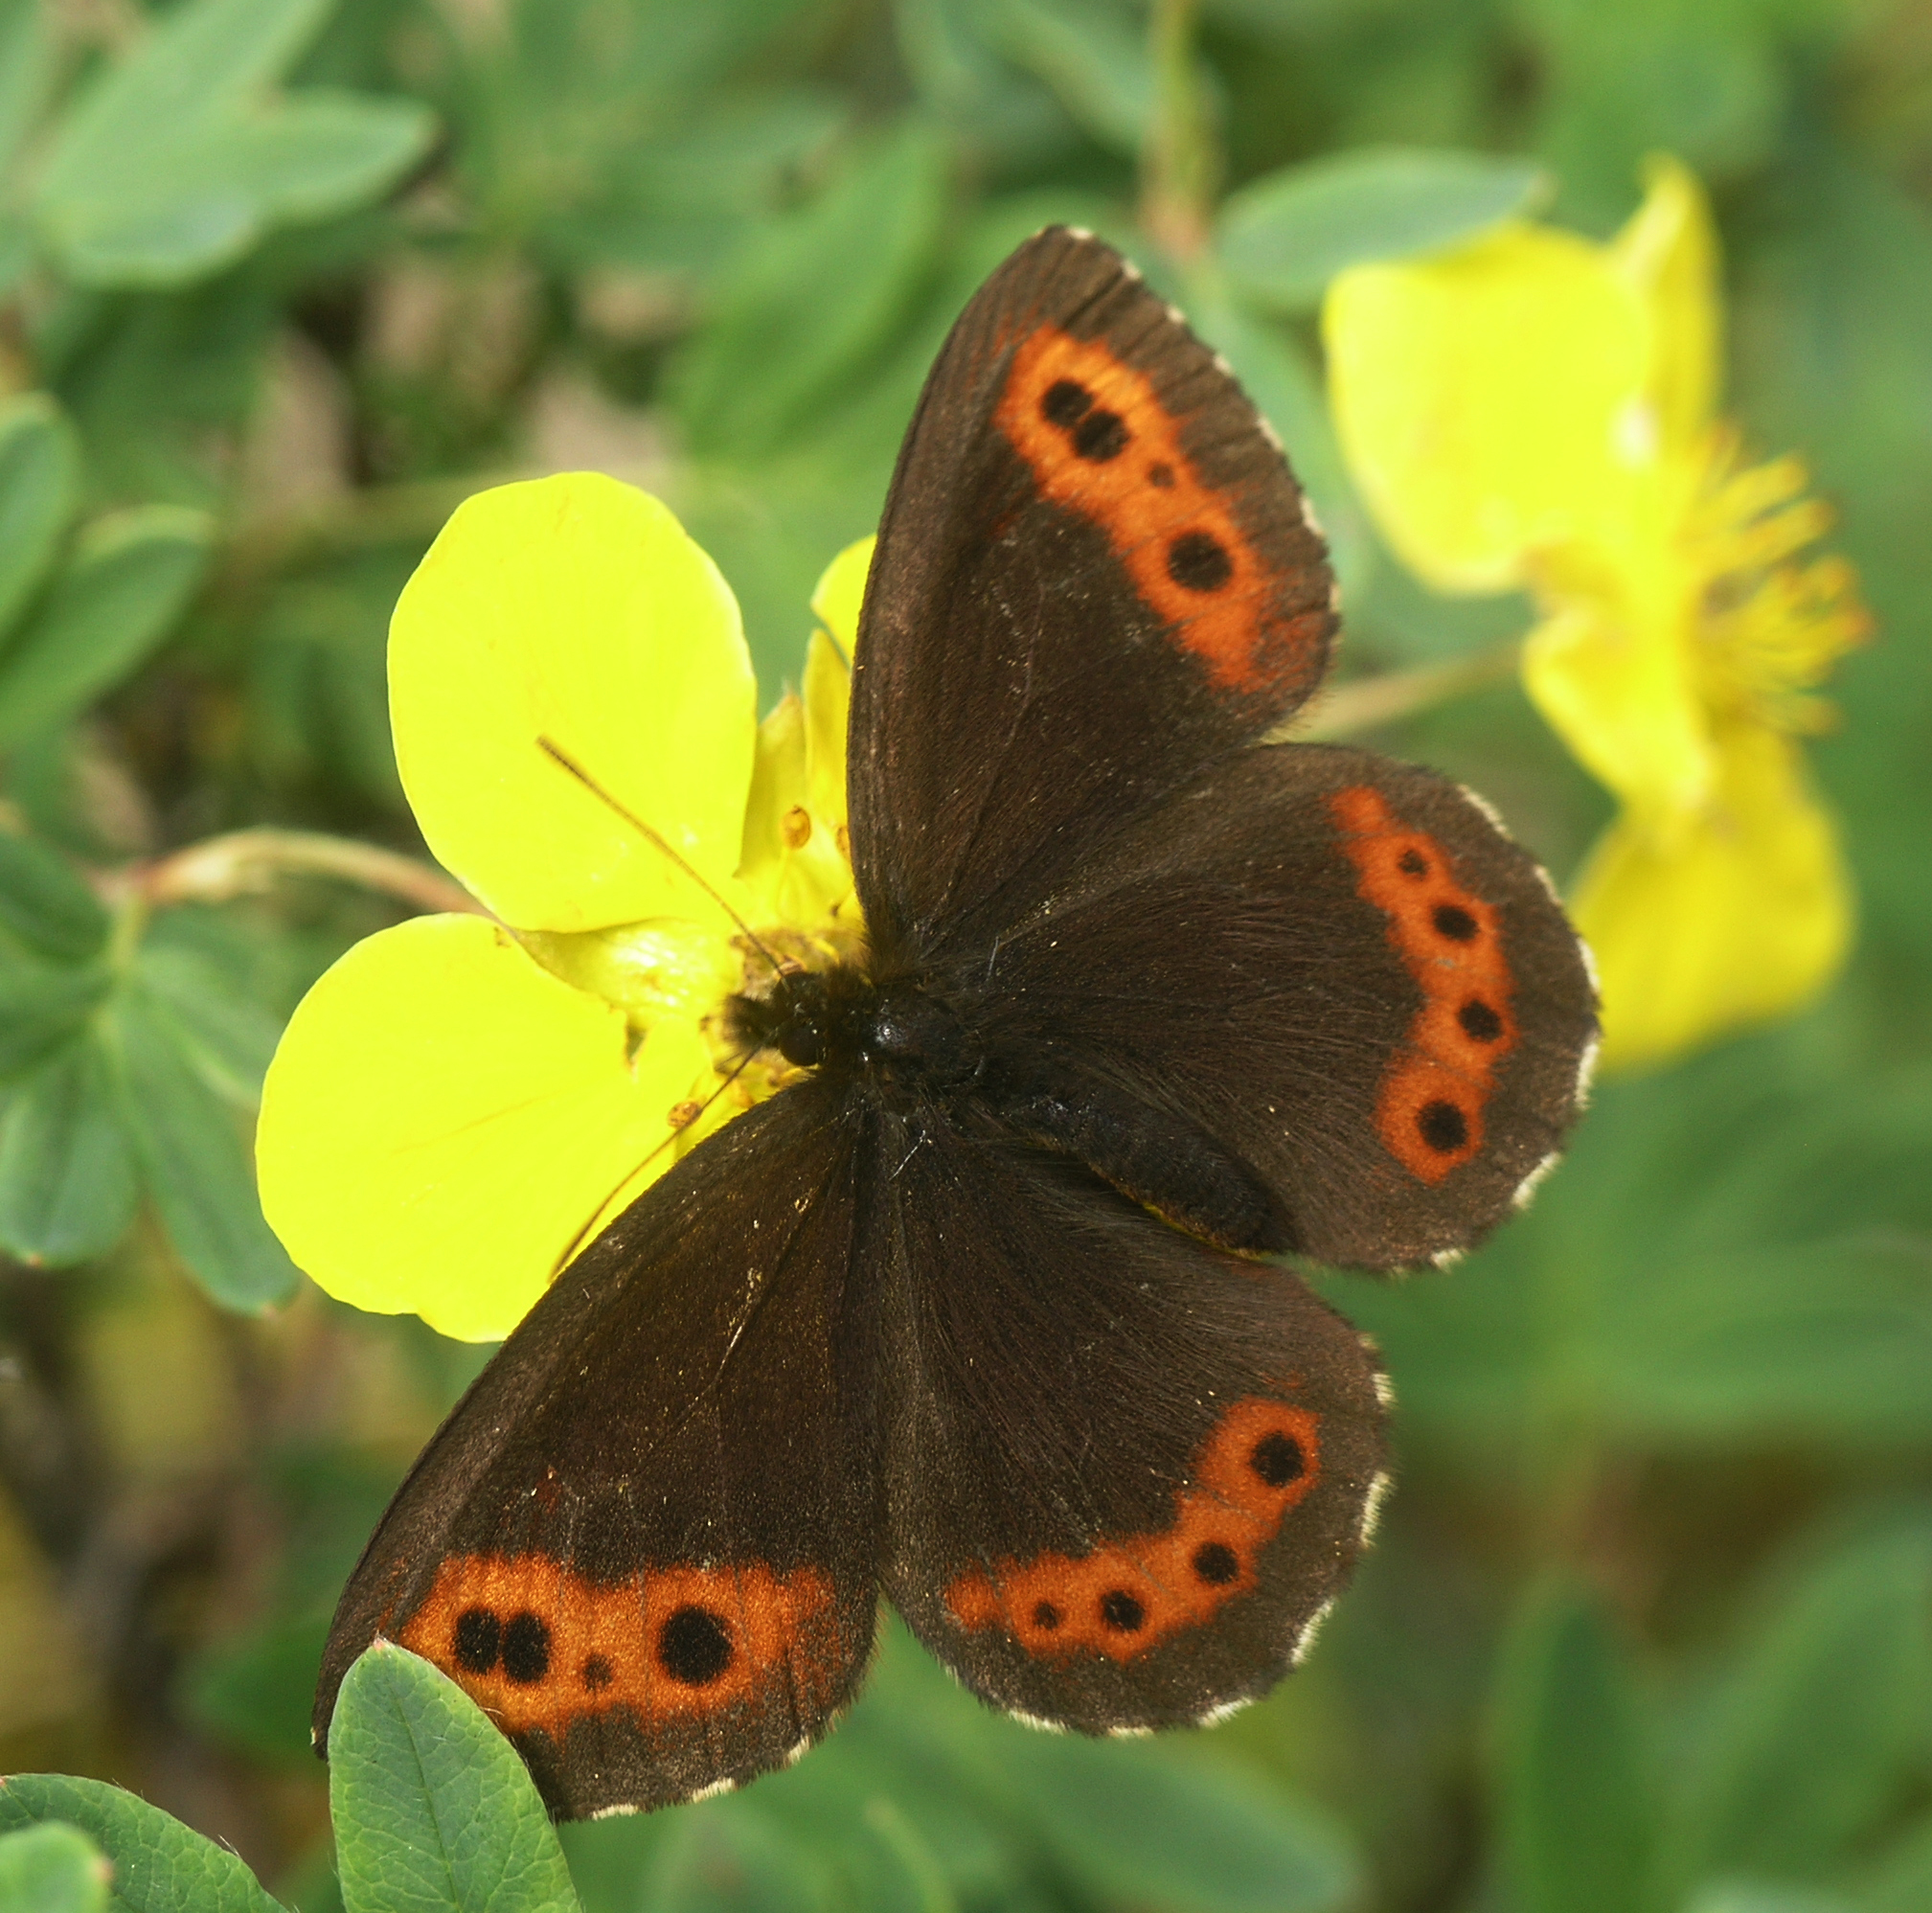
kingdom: Plantae
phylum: Tracheophyta
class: Magnoliopsida
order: Rosales
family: Rosaceae
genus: Dasiphora
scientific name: Dasiphora fruticosa
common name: Shrubby cinquefoil
